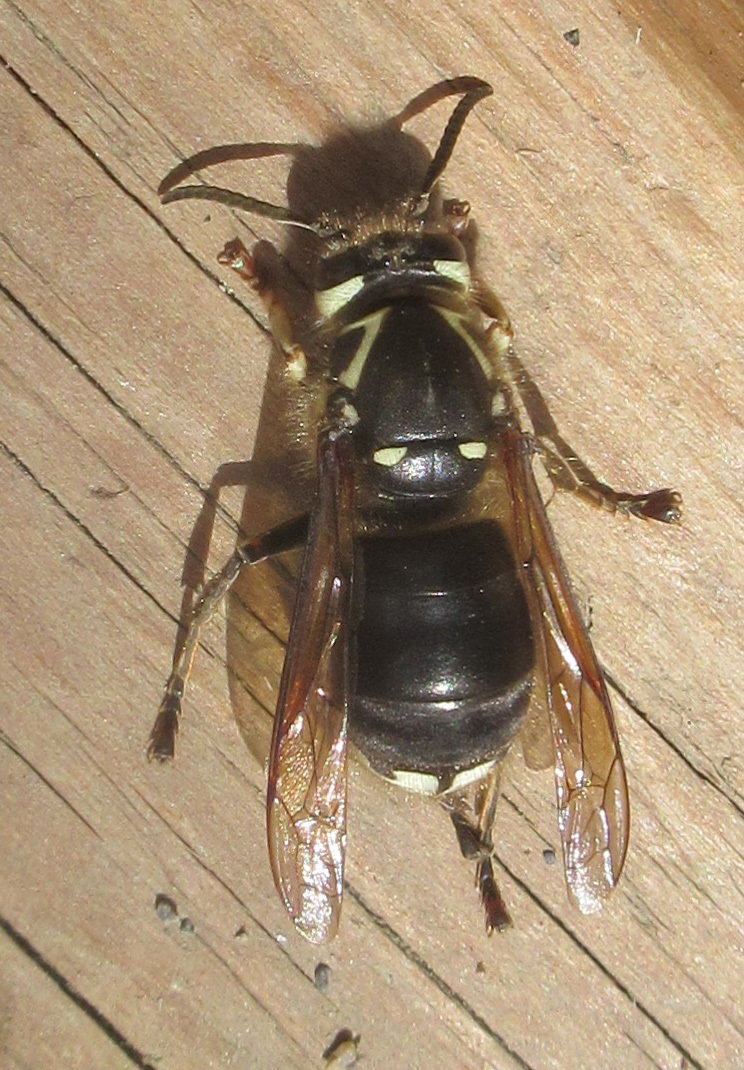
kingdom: Animalia
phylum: Arthropoda
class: Insecta
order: Hymenoptera
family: Vespidae
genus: Dolichovespula
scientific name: Dolichovespula maculata
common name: Bald-faced hornet
